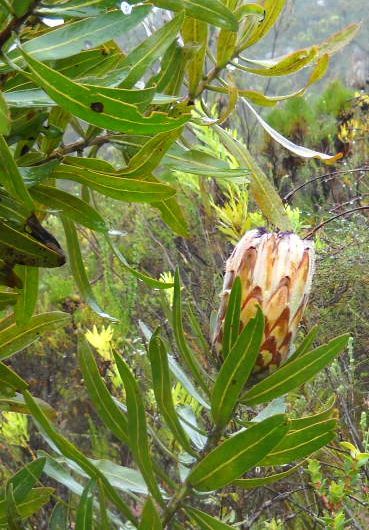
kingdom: Plantae
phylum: Tracheophyta
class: Magnoliopsida
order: Proteales
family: Proteaceae
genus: Protea
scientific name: Protea neriifolia
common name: Blue sugarbush
